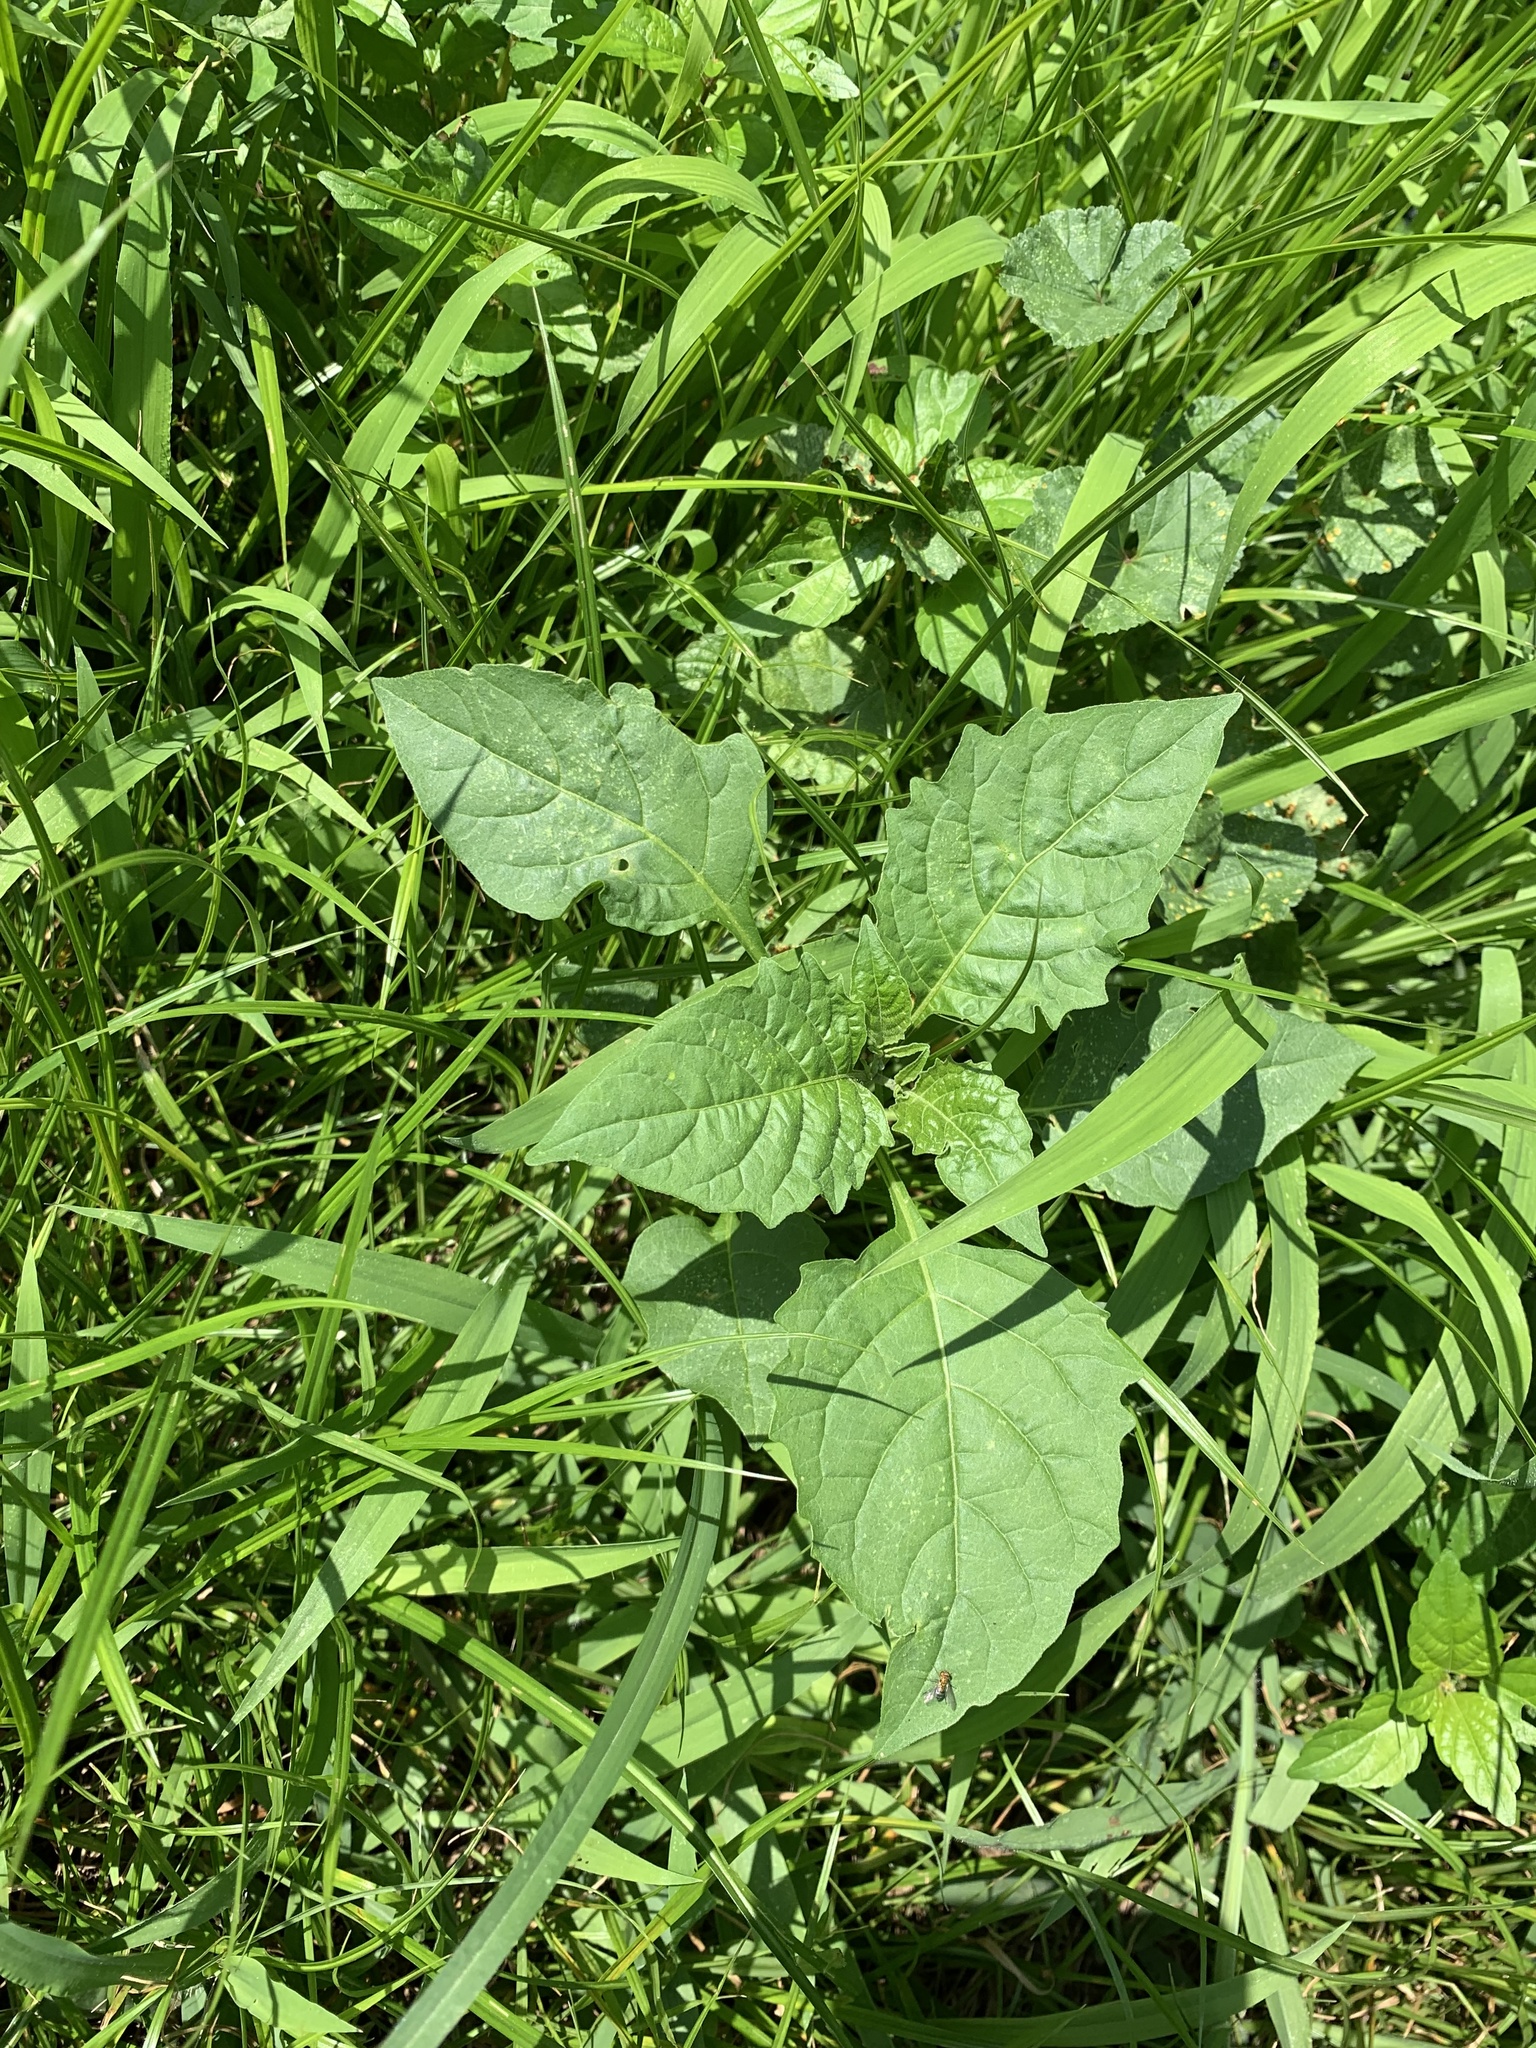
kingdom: Plantae
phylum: Tracheophyta
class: Magnoliopsida
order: Solanales
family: Solanaceae
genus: Solanum
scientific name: Solanum
